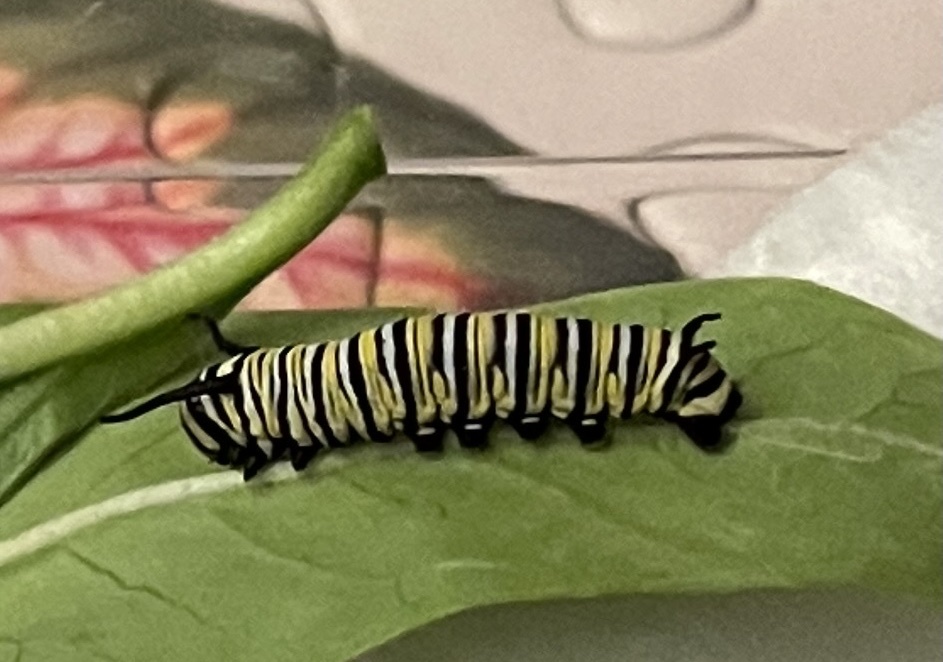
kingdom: Animalia
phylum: Arthropoda
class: Insecta
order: Lepidoptera
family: Nymphalidae
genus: Danaus
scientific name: Danaus plexippus
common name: Monarch
